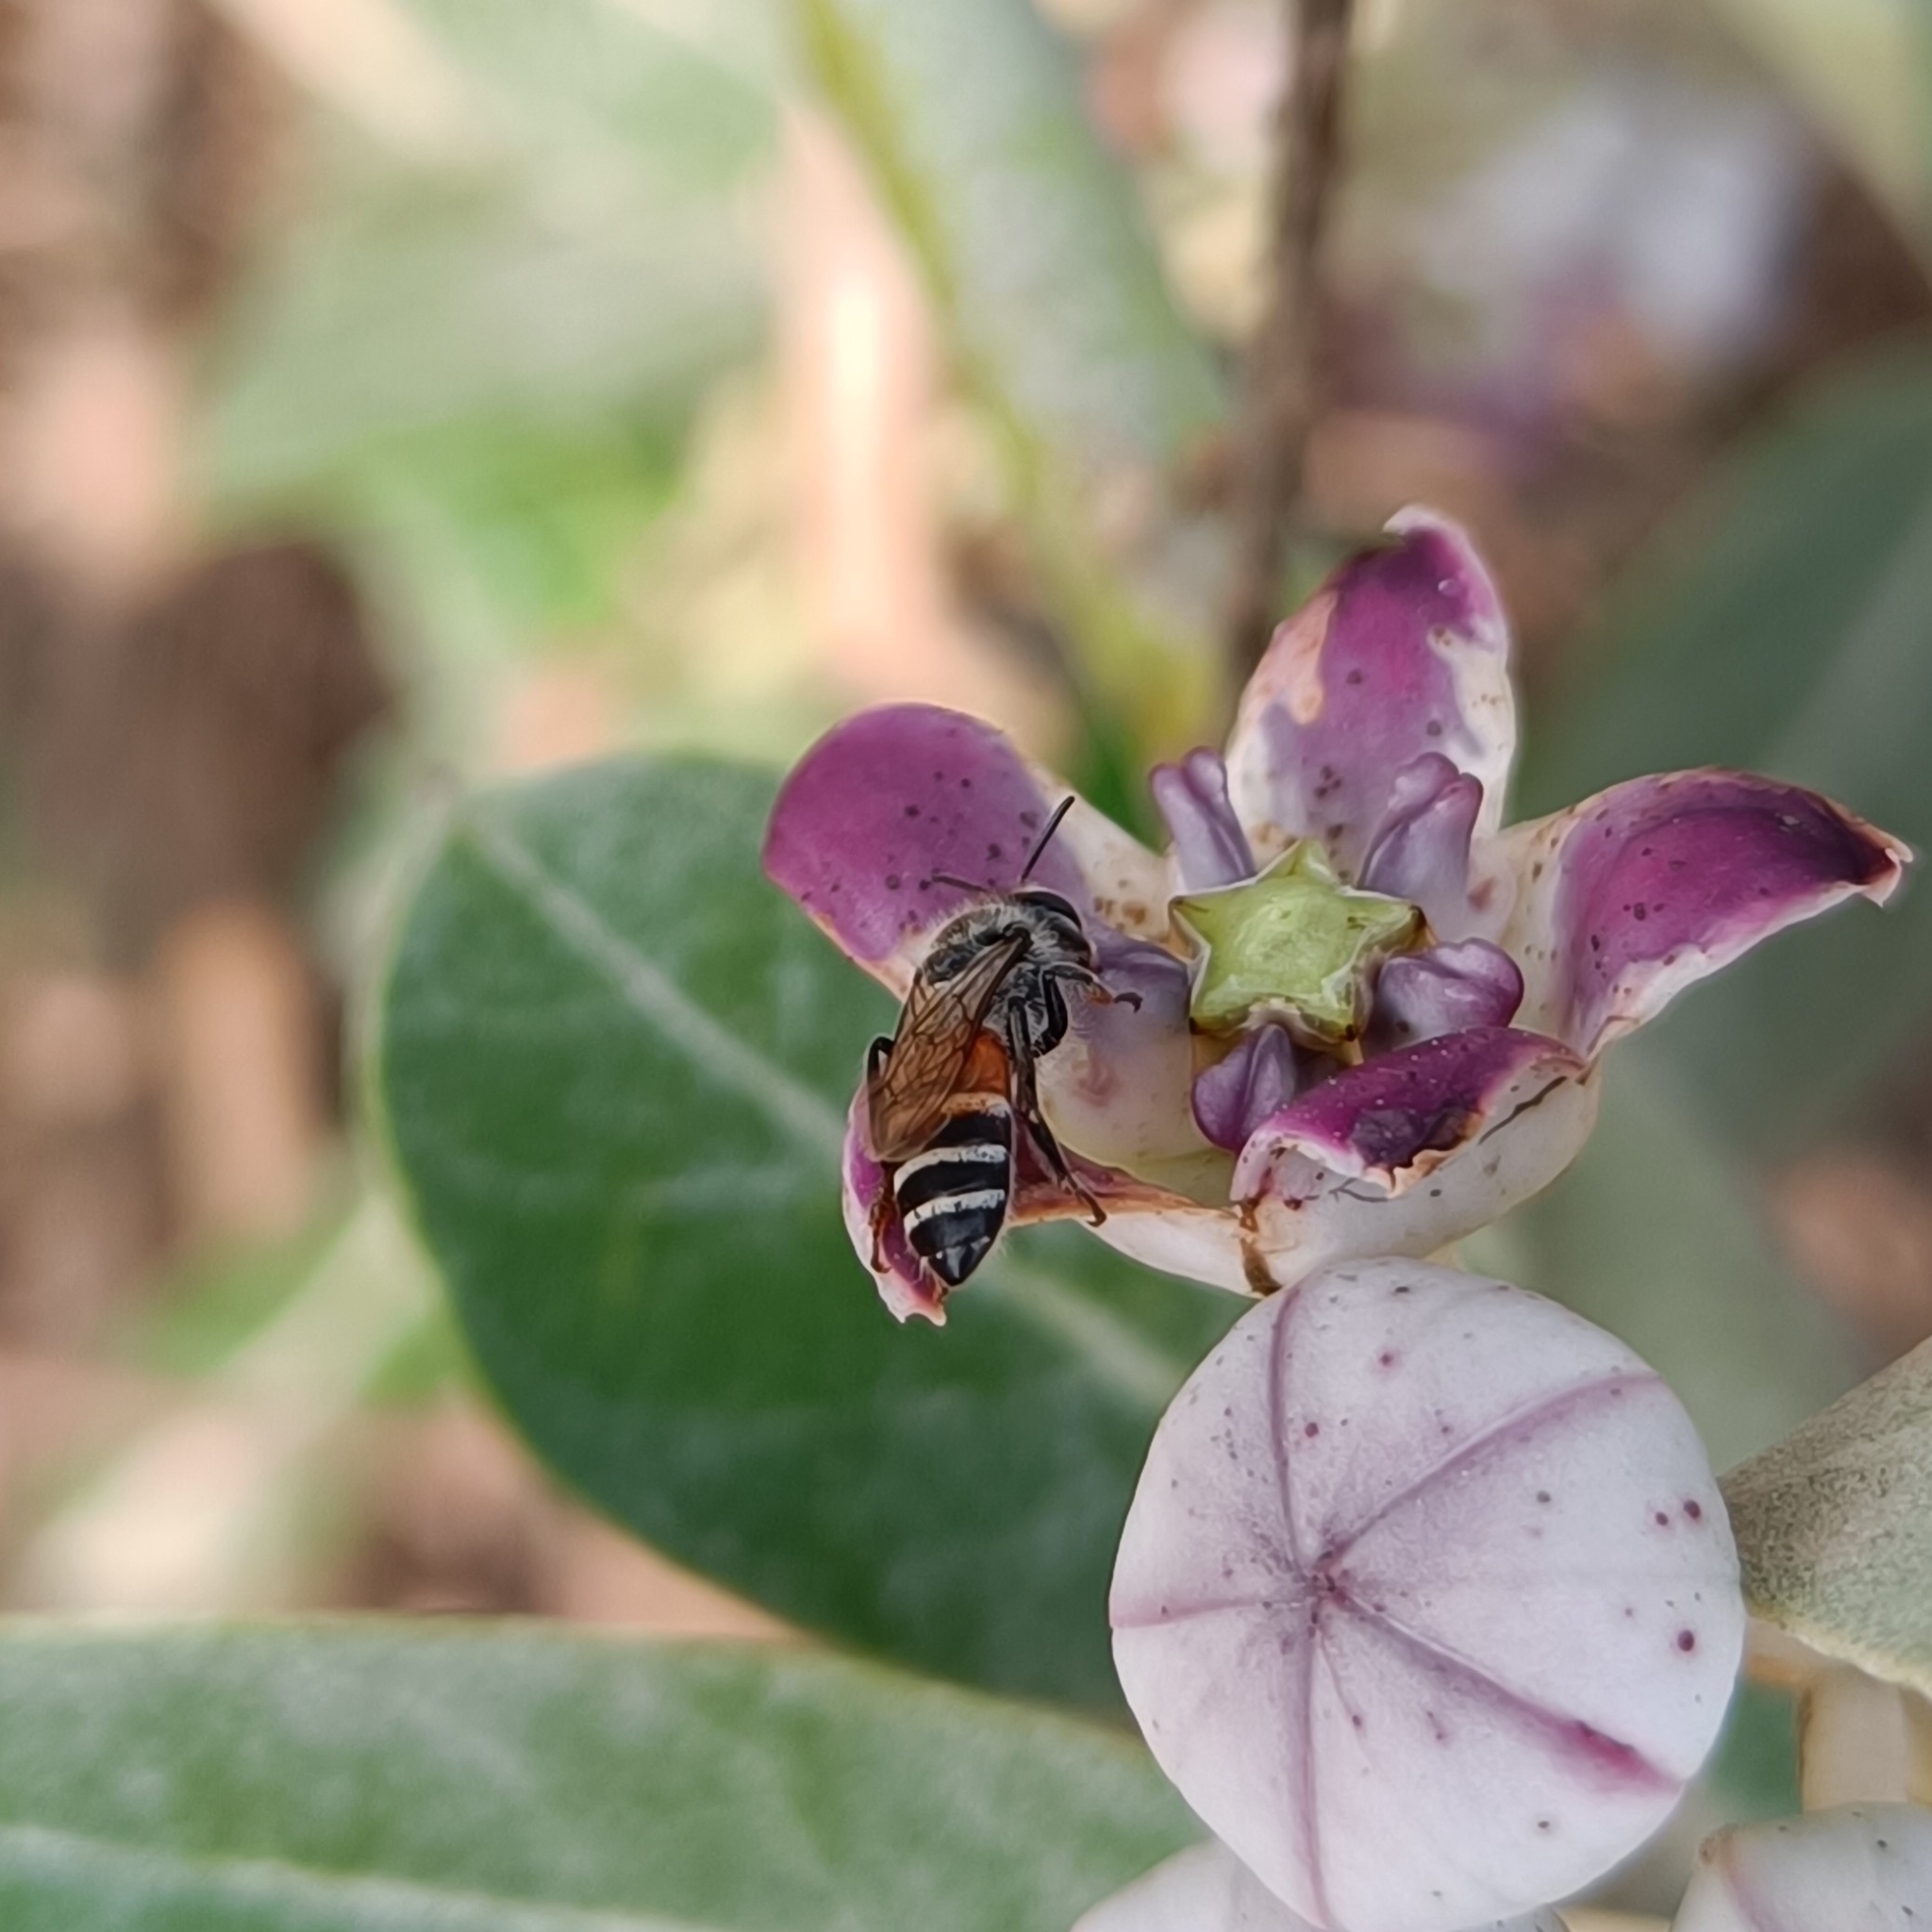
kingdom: Animalia
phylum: Arthropoda
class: Insecta
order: Hymenoptera
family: Apidae
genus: Apis
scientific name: Apis florea
